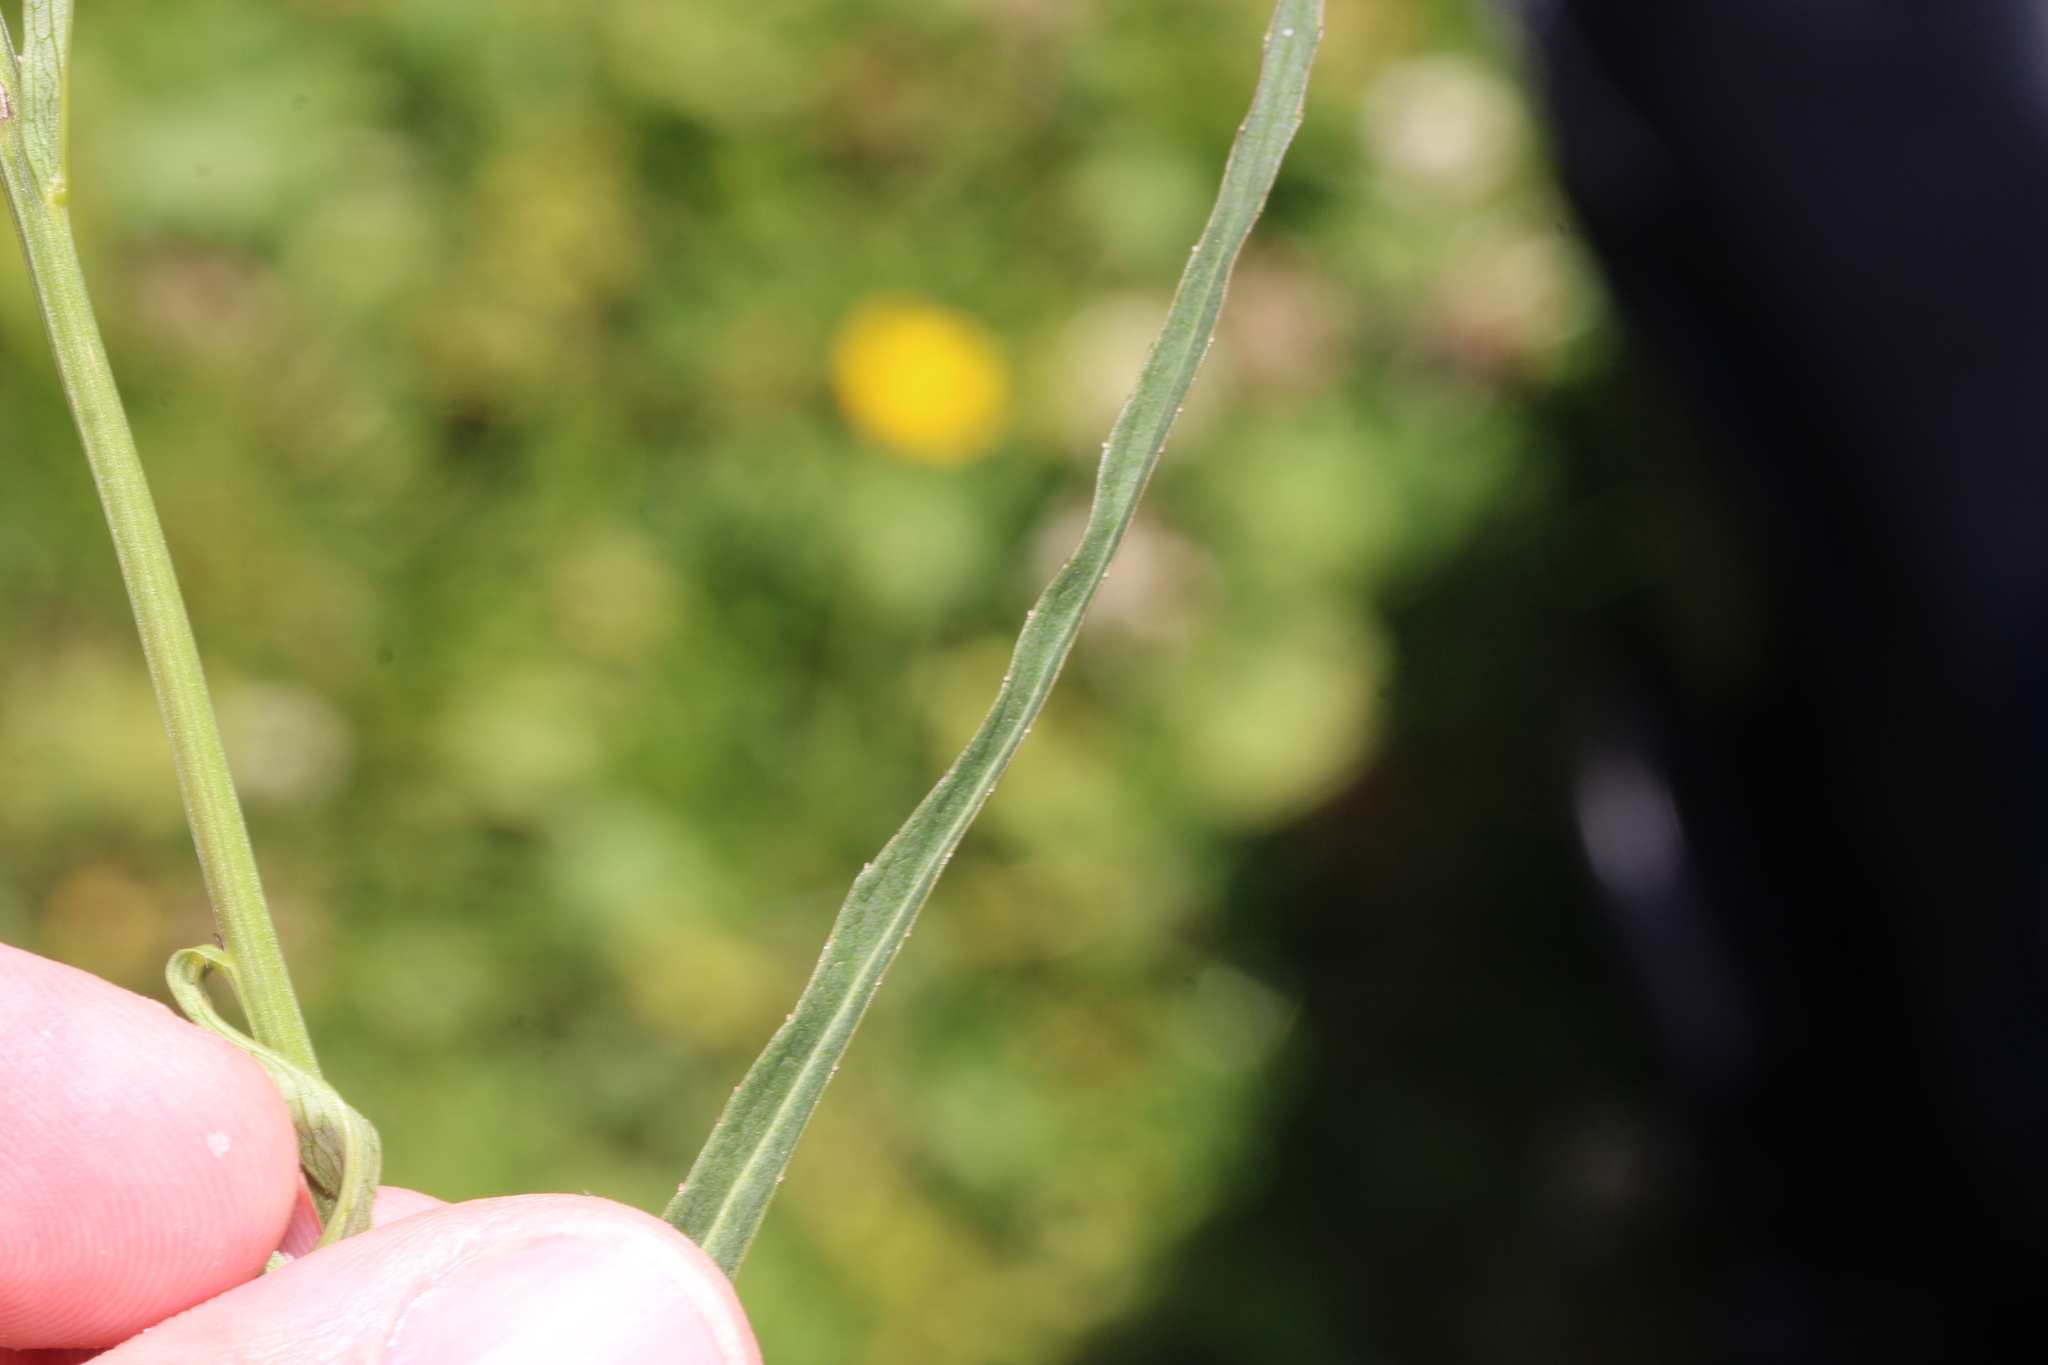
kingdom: Plantae
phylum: Tracheophyta
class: Magnoliopsida
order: Asterales
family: Campanulaceae
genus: Phyteuma
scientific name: Phyteuma persicifolium
